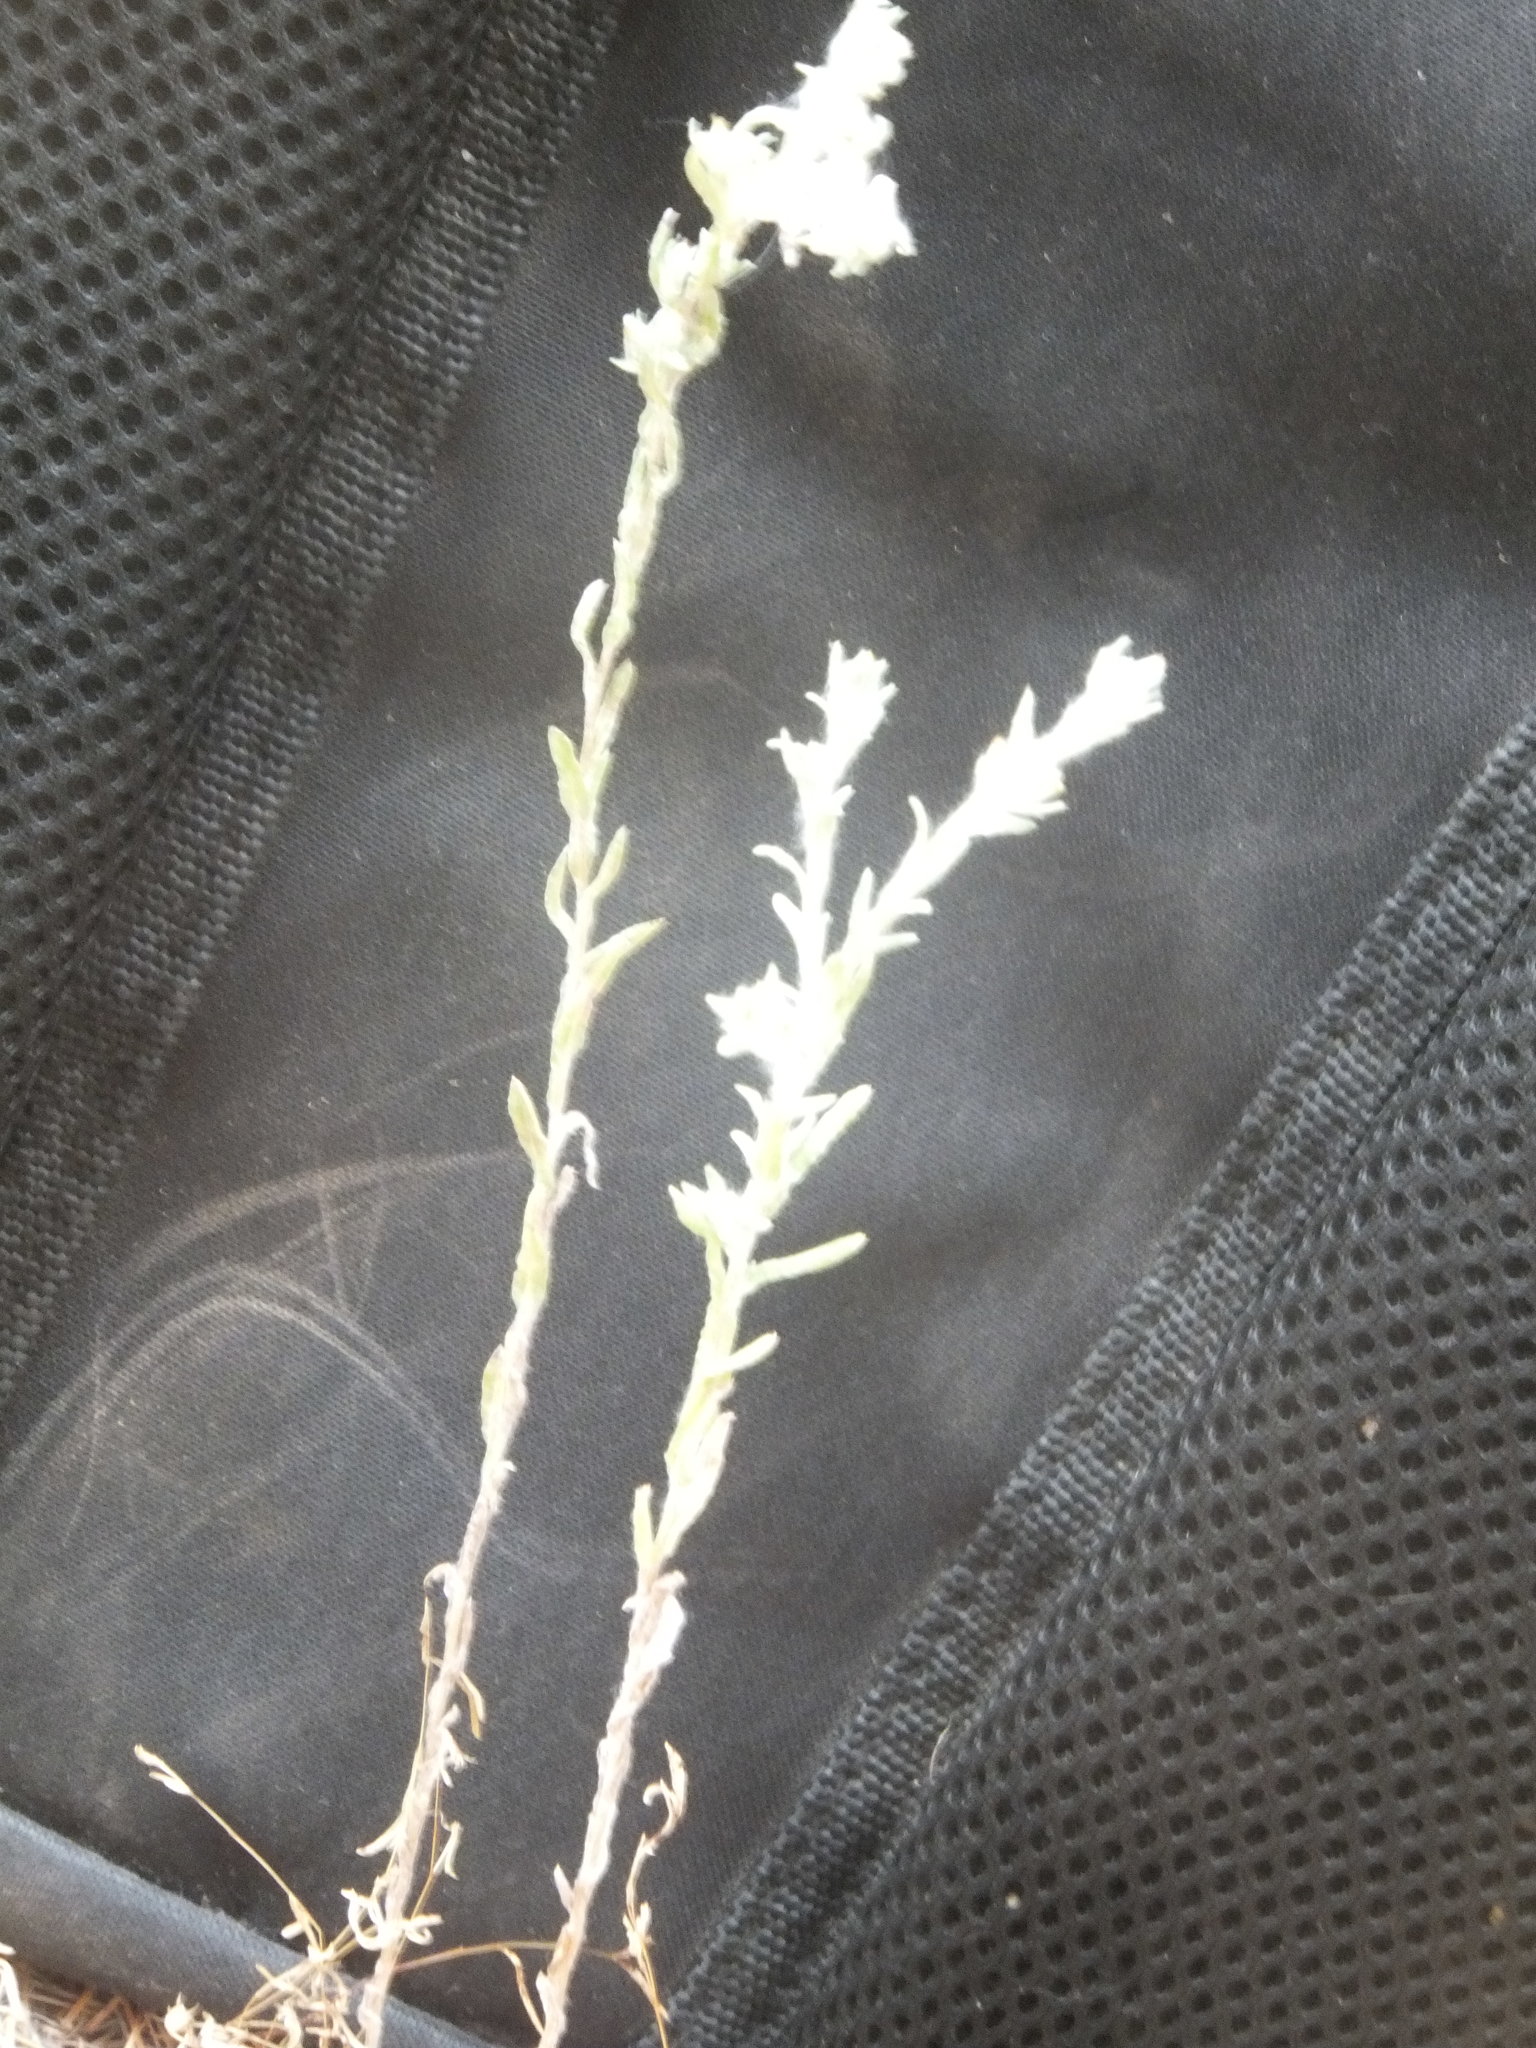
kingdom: Plantae
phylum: Tracheophyta
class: Magnoliopsida
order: Asterales
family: Asteraceae
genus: Filago
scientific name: Filago arvensis
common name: Field cudweed
